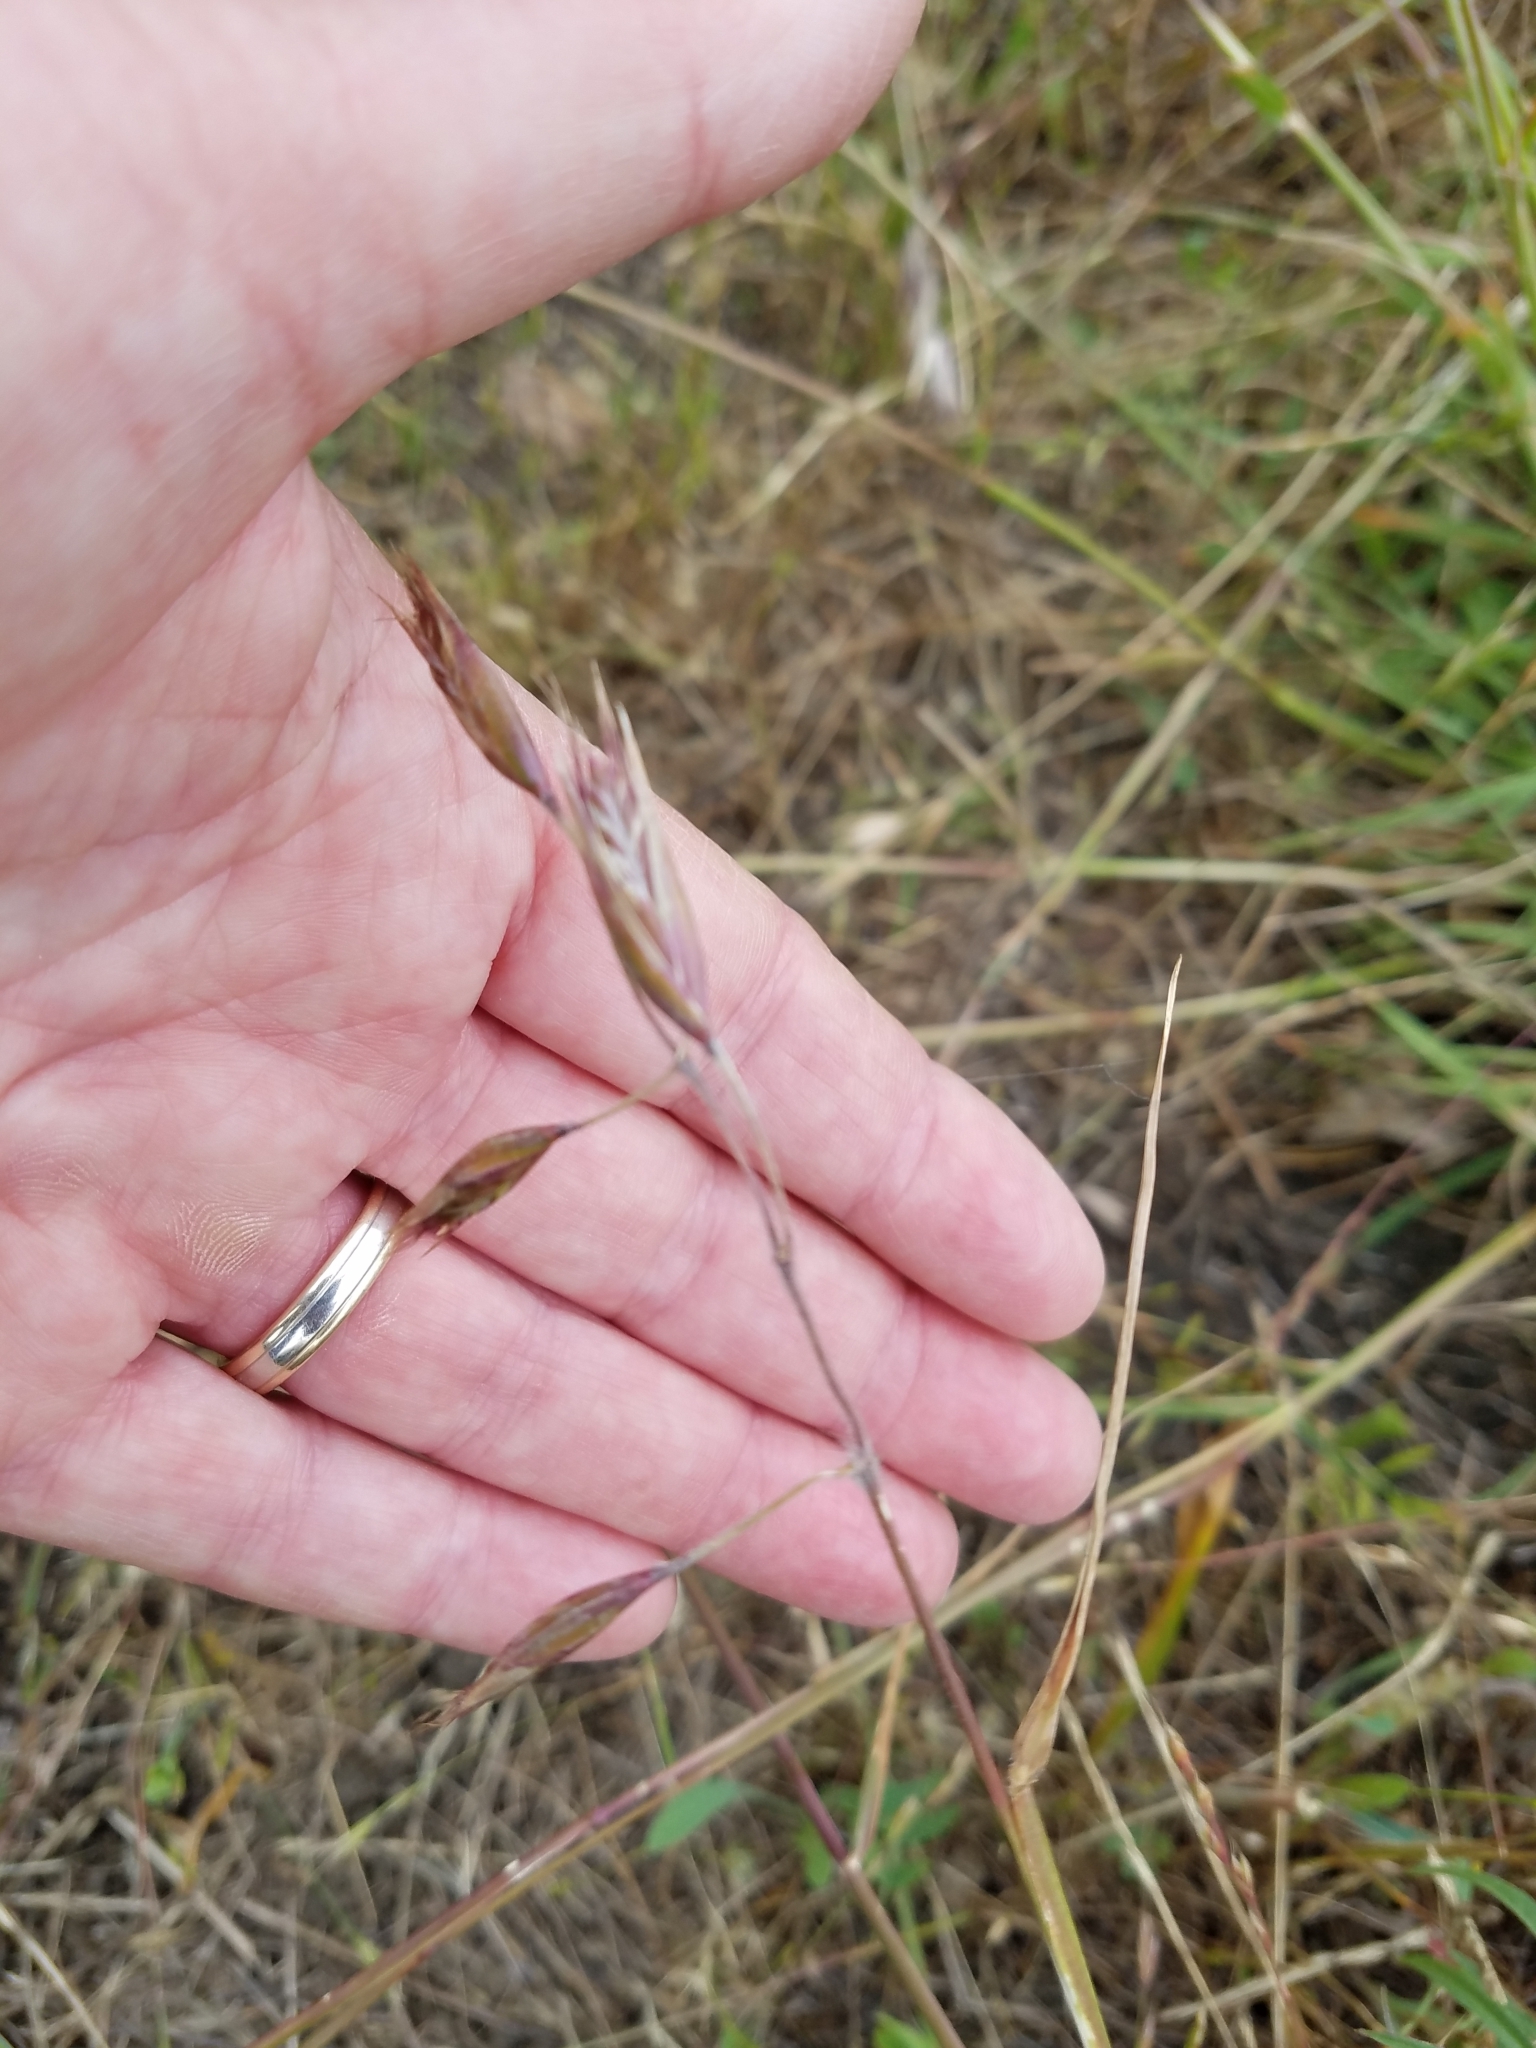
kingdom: Plantae
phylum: Tracheophyta
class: Liliopsida
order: Poales
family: Poaceae
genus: Danthonia
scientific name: Danthonia californica
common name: California oat grass
